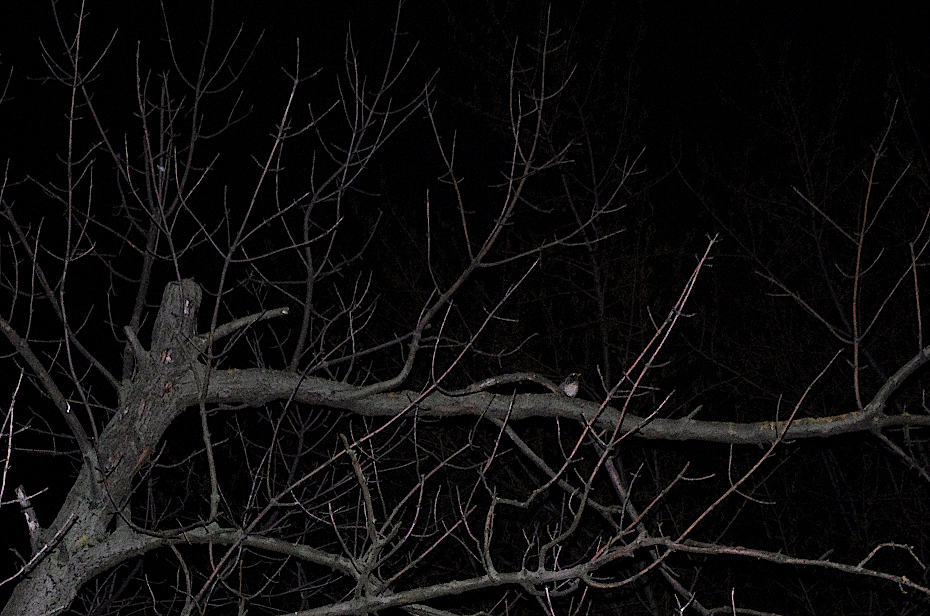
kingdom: Animalia
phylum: Chordata
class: Aves
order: Passeriformes
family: Turdidae
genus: Turdus
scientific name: Turdus pilaris
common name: Fieldfare
